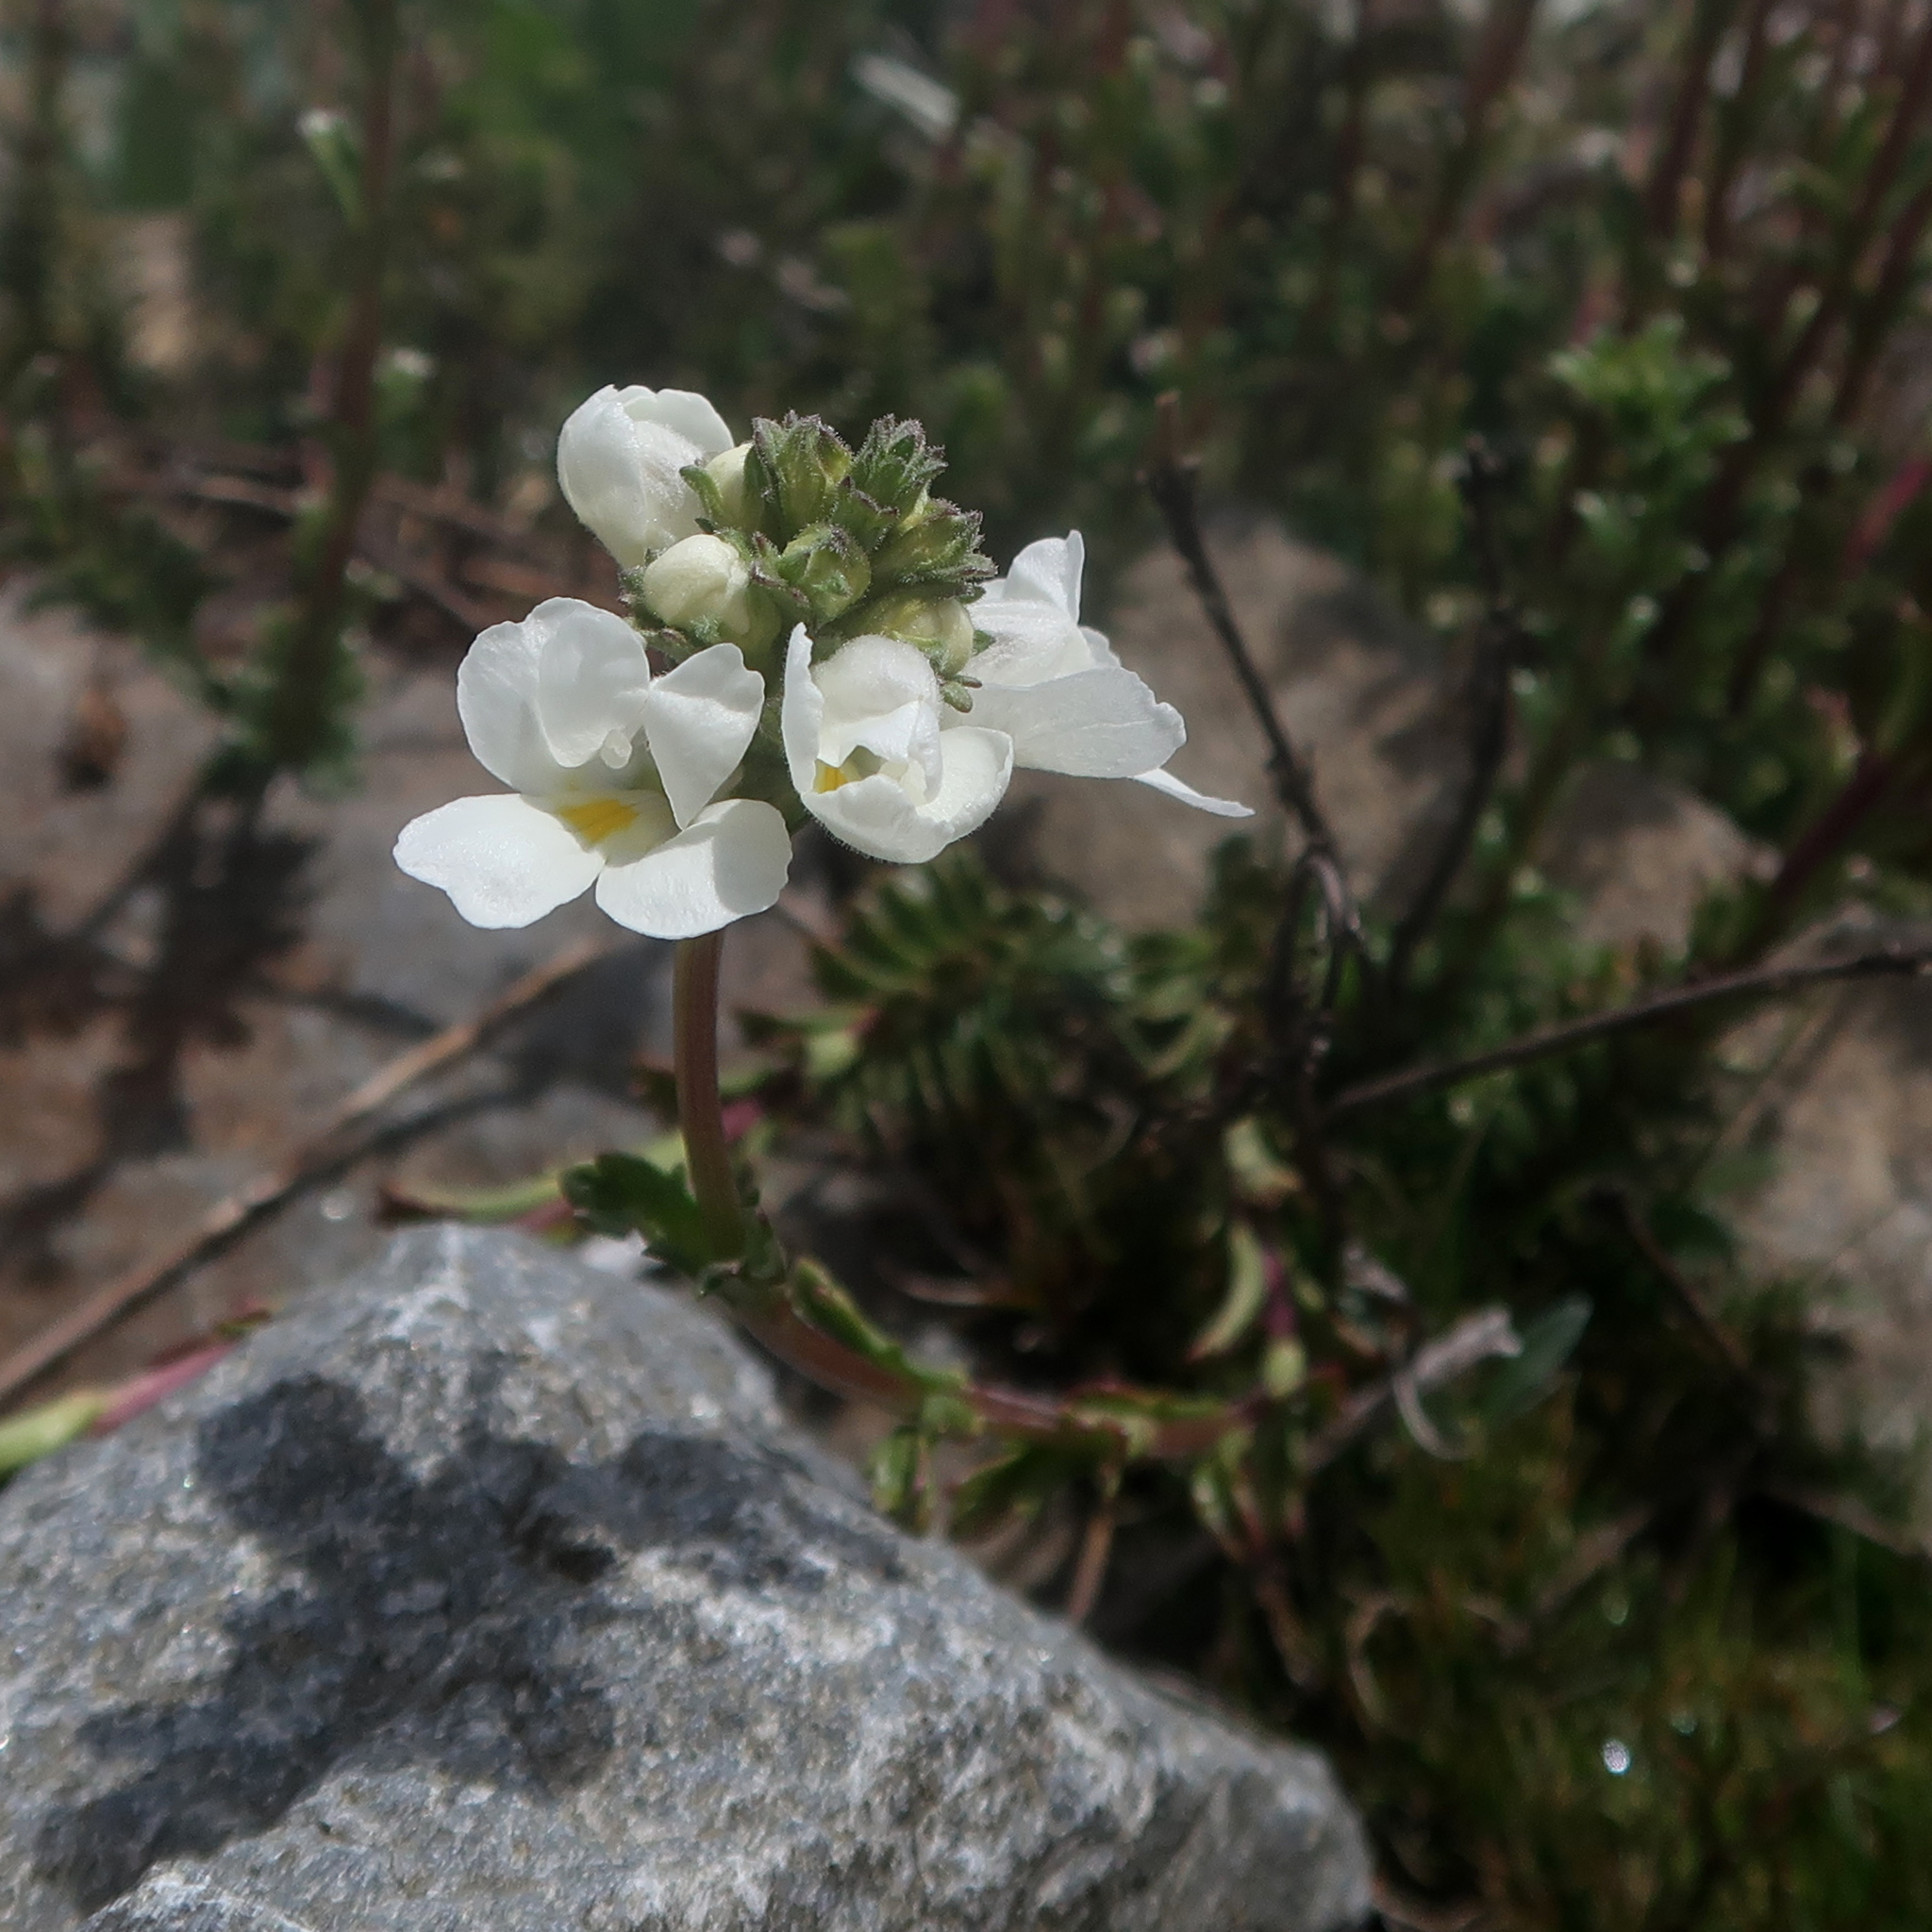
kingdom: Plantae
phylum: Tracheophyta
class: Magnoliopsida
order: Lamiales
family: Orobanchaceae
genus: Euphrasia
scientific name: Euphrasia collina
